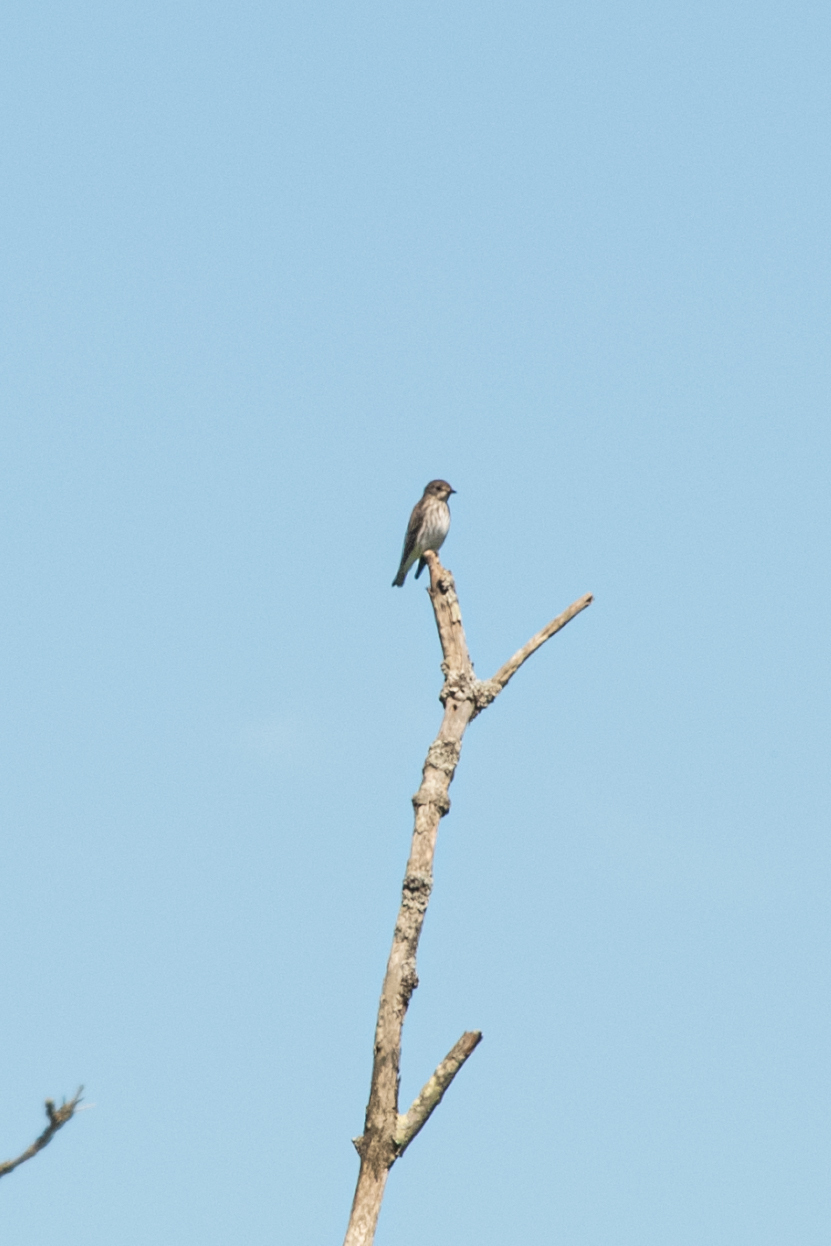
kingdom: Animalia
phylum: Chordata
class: Aves
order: Passeriformes
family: Muscicapidae
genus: Muscicapa
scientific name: Muscicapa griseisticta
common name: Gray-streaked flycatcher
